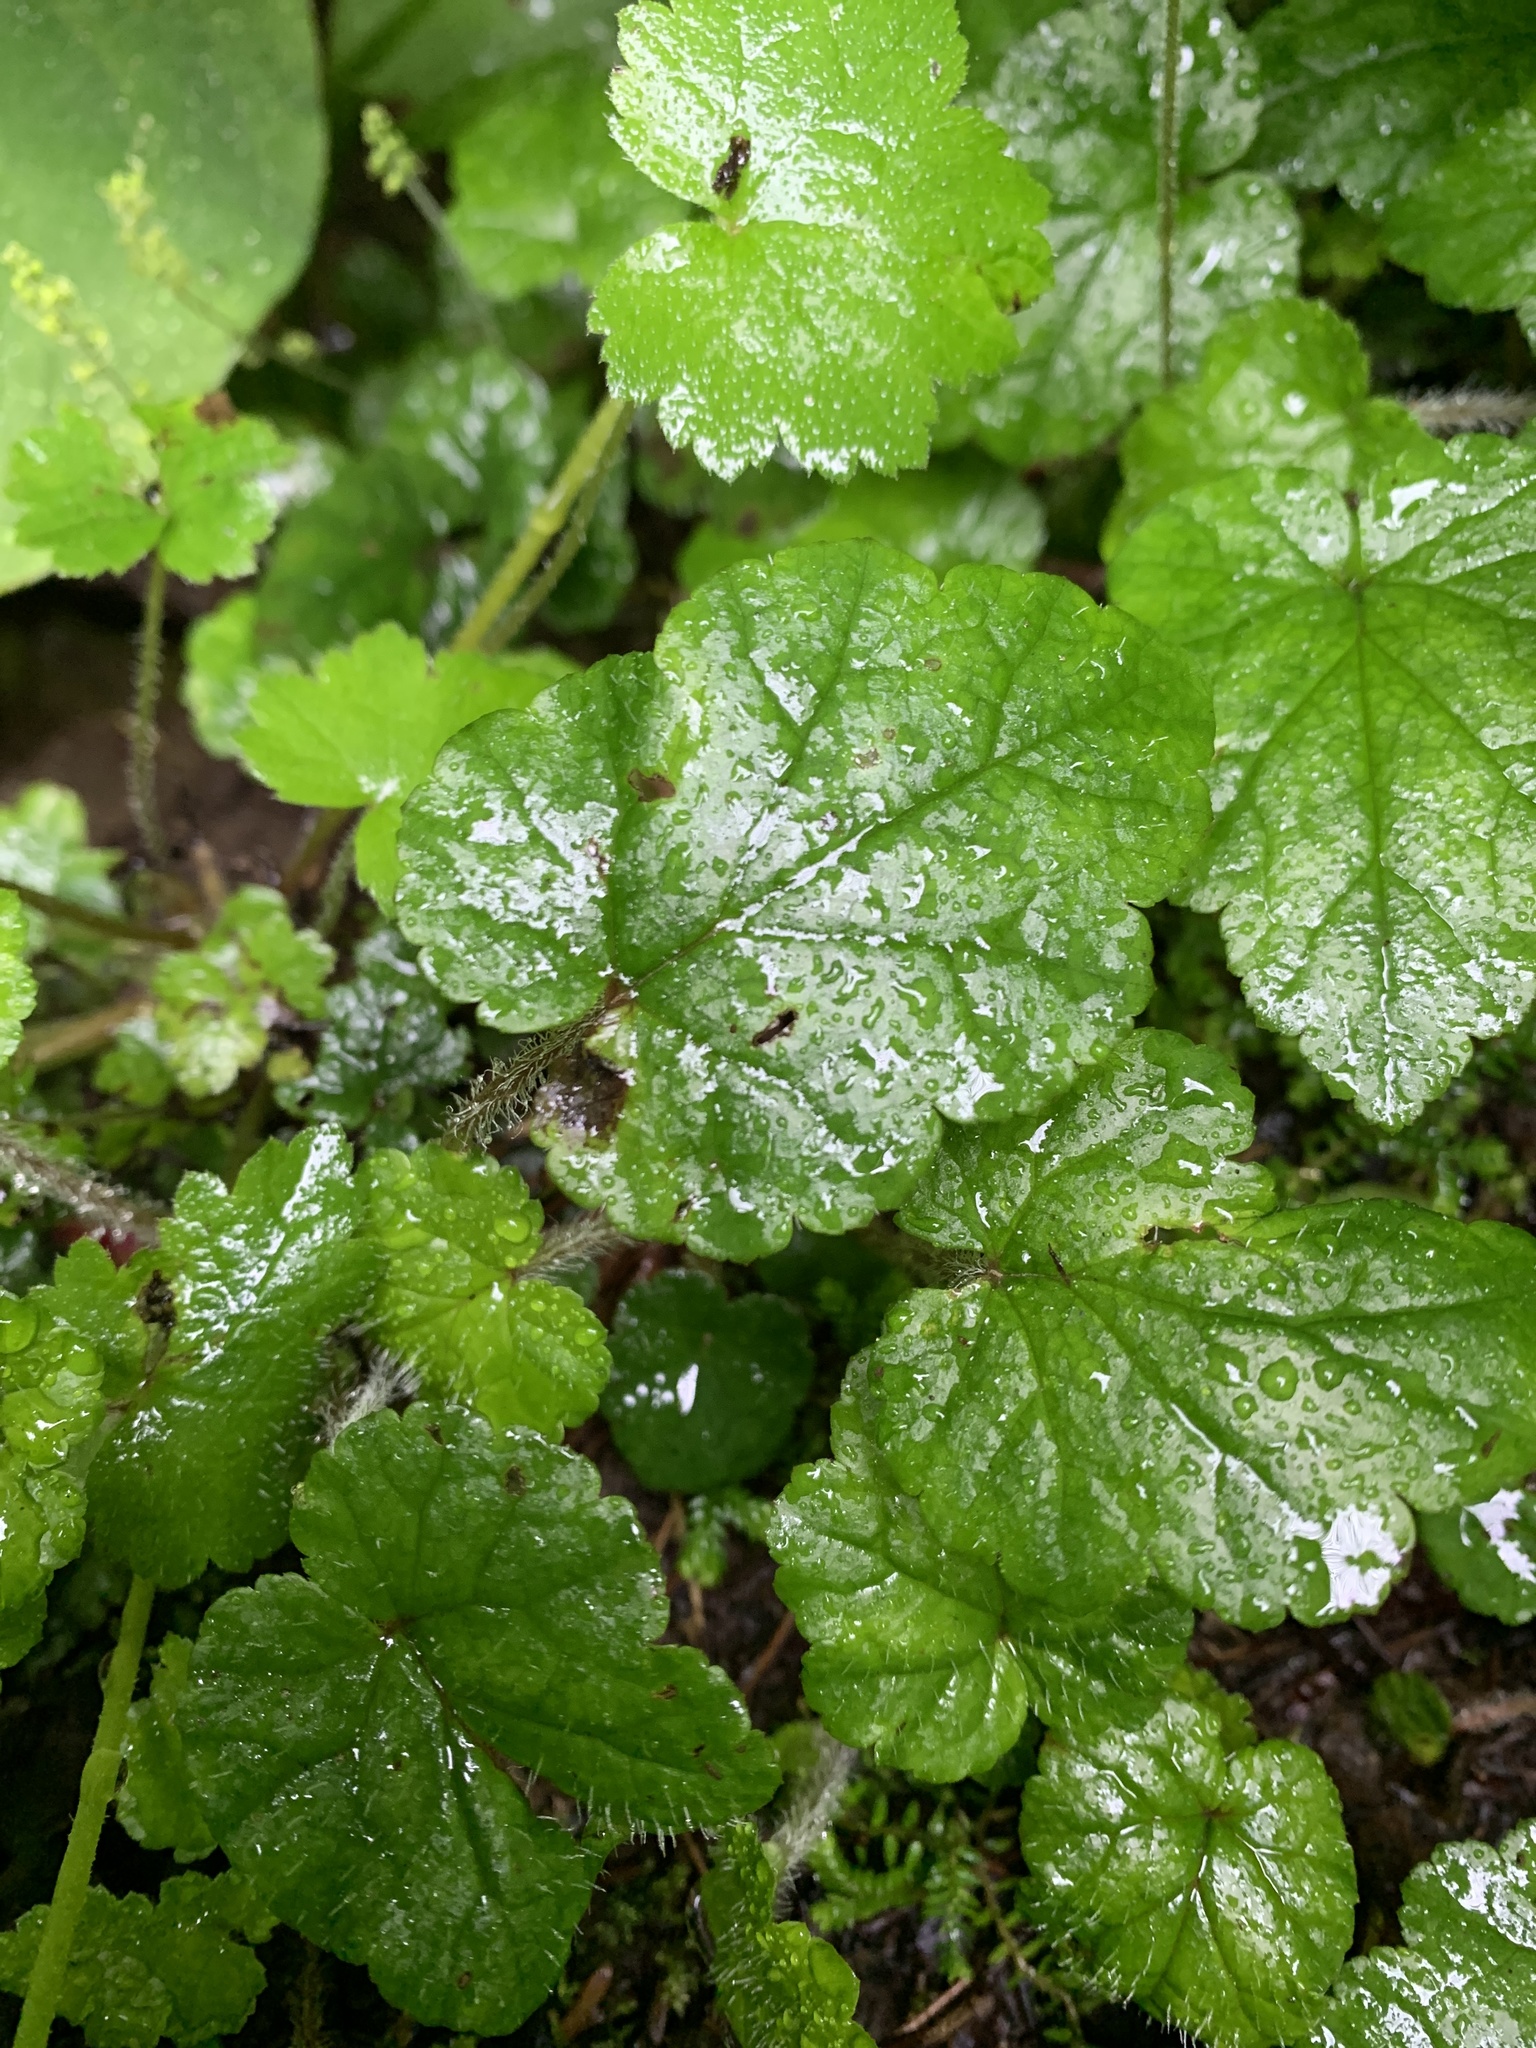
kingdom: Plantae
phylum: Tracheophyta
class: Magnoliopsida
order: Saxifragales
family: Saxifragaceae
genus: Brewerimitella
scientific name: Brewerimitella ovalis
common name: Coastal bishop's-cap
